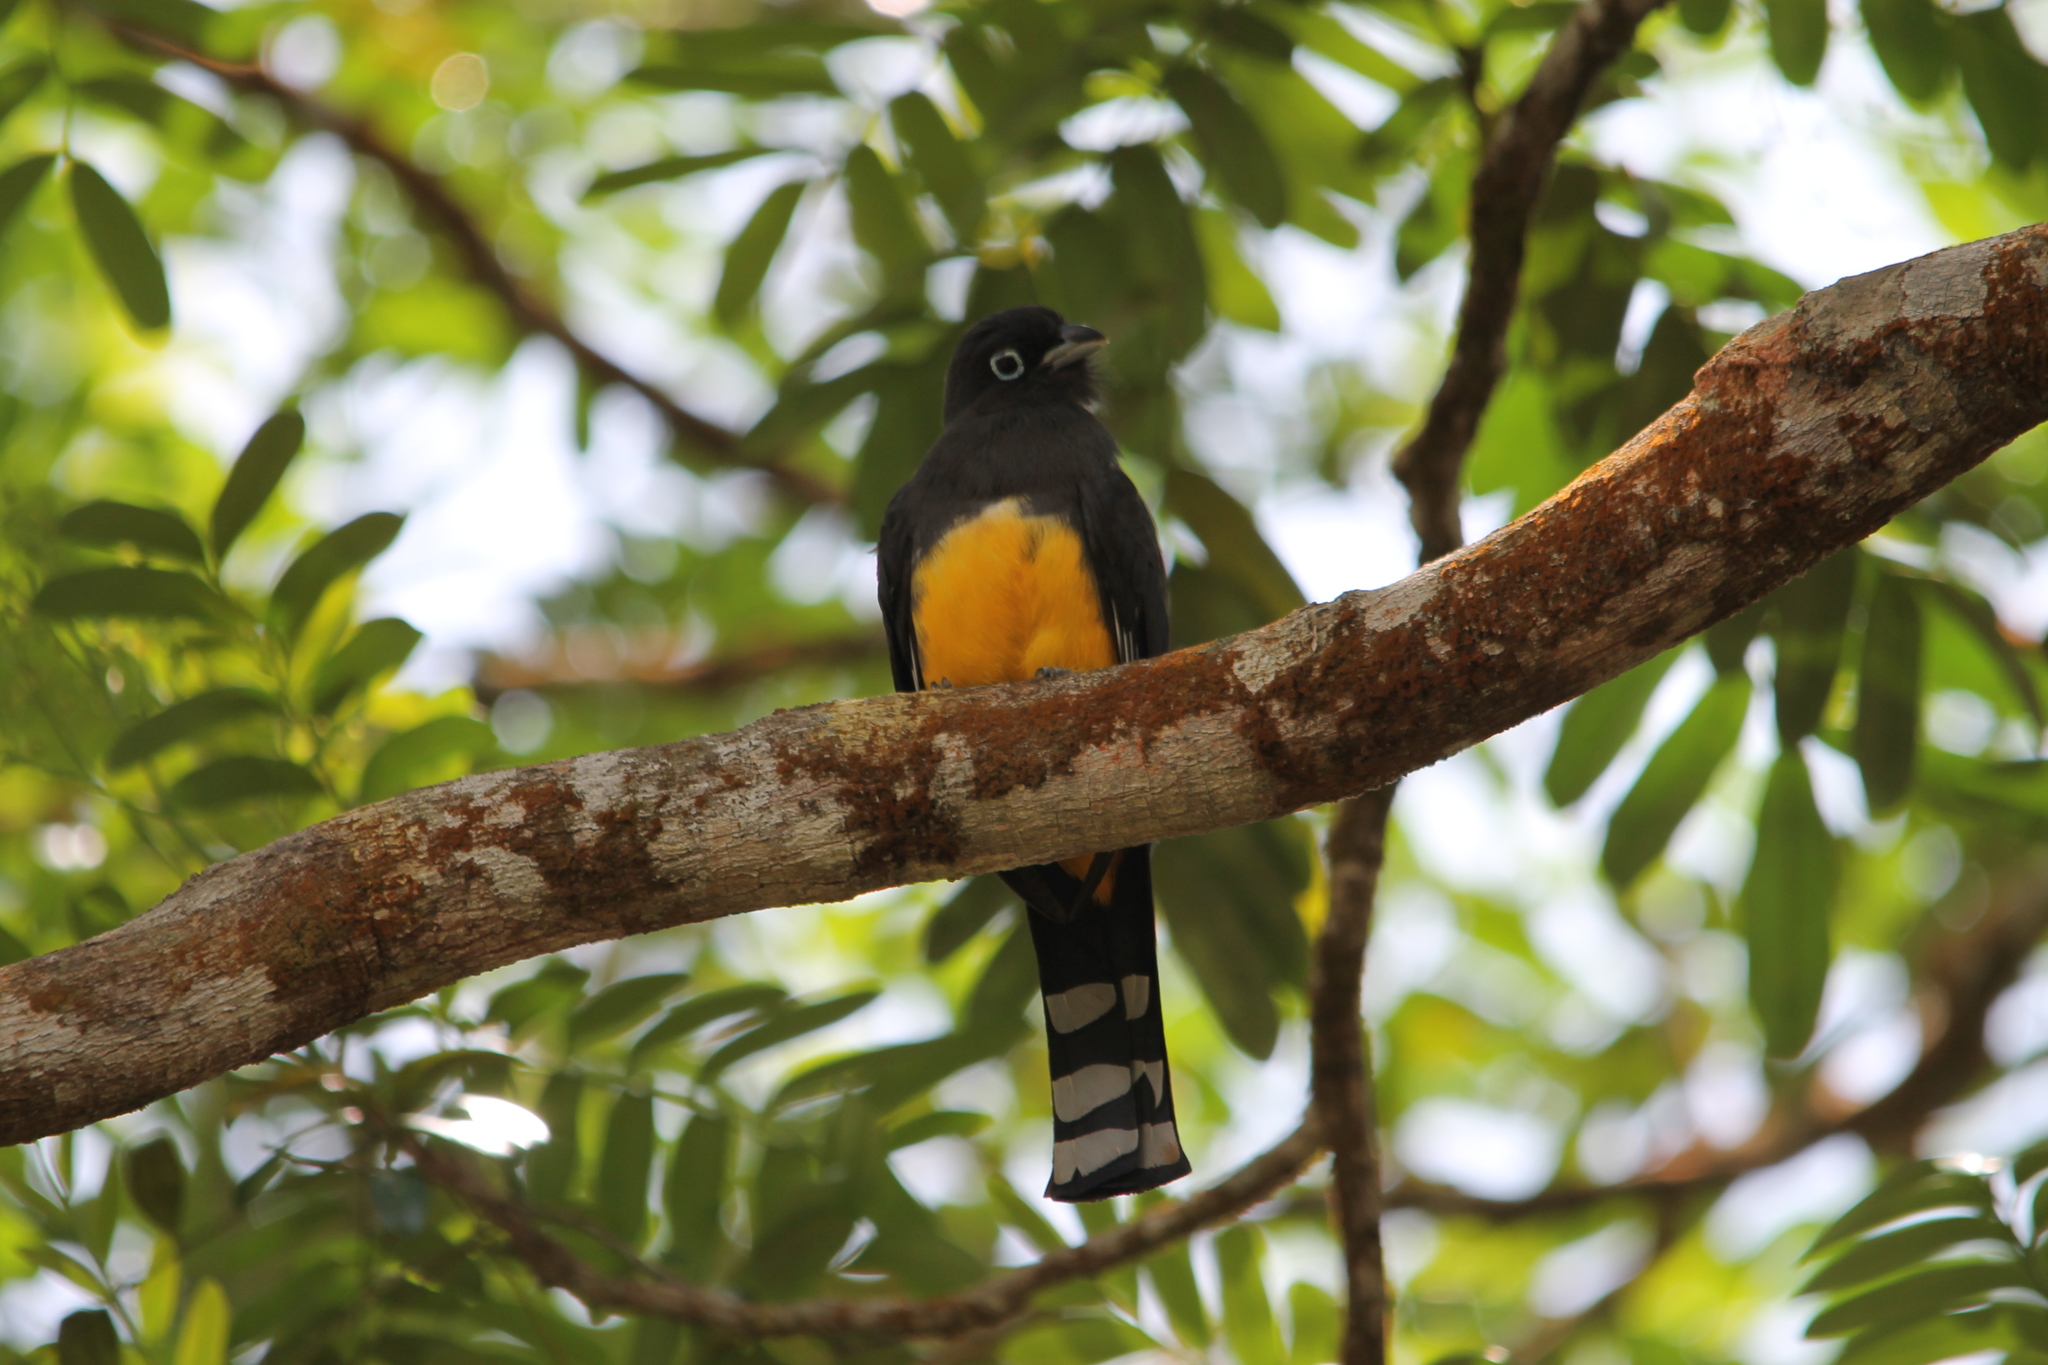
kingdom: Animalia
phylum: Chordata
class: Aves
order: Trogoniformes
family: Trogonidae
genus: Trogon
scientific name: Trogon melanocephalus
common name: Black-headed trogon
